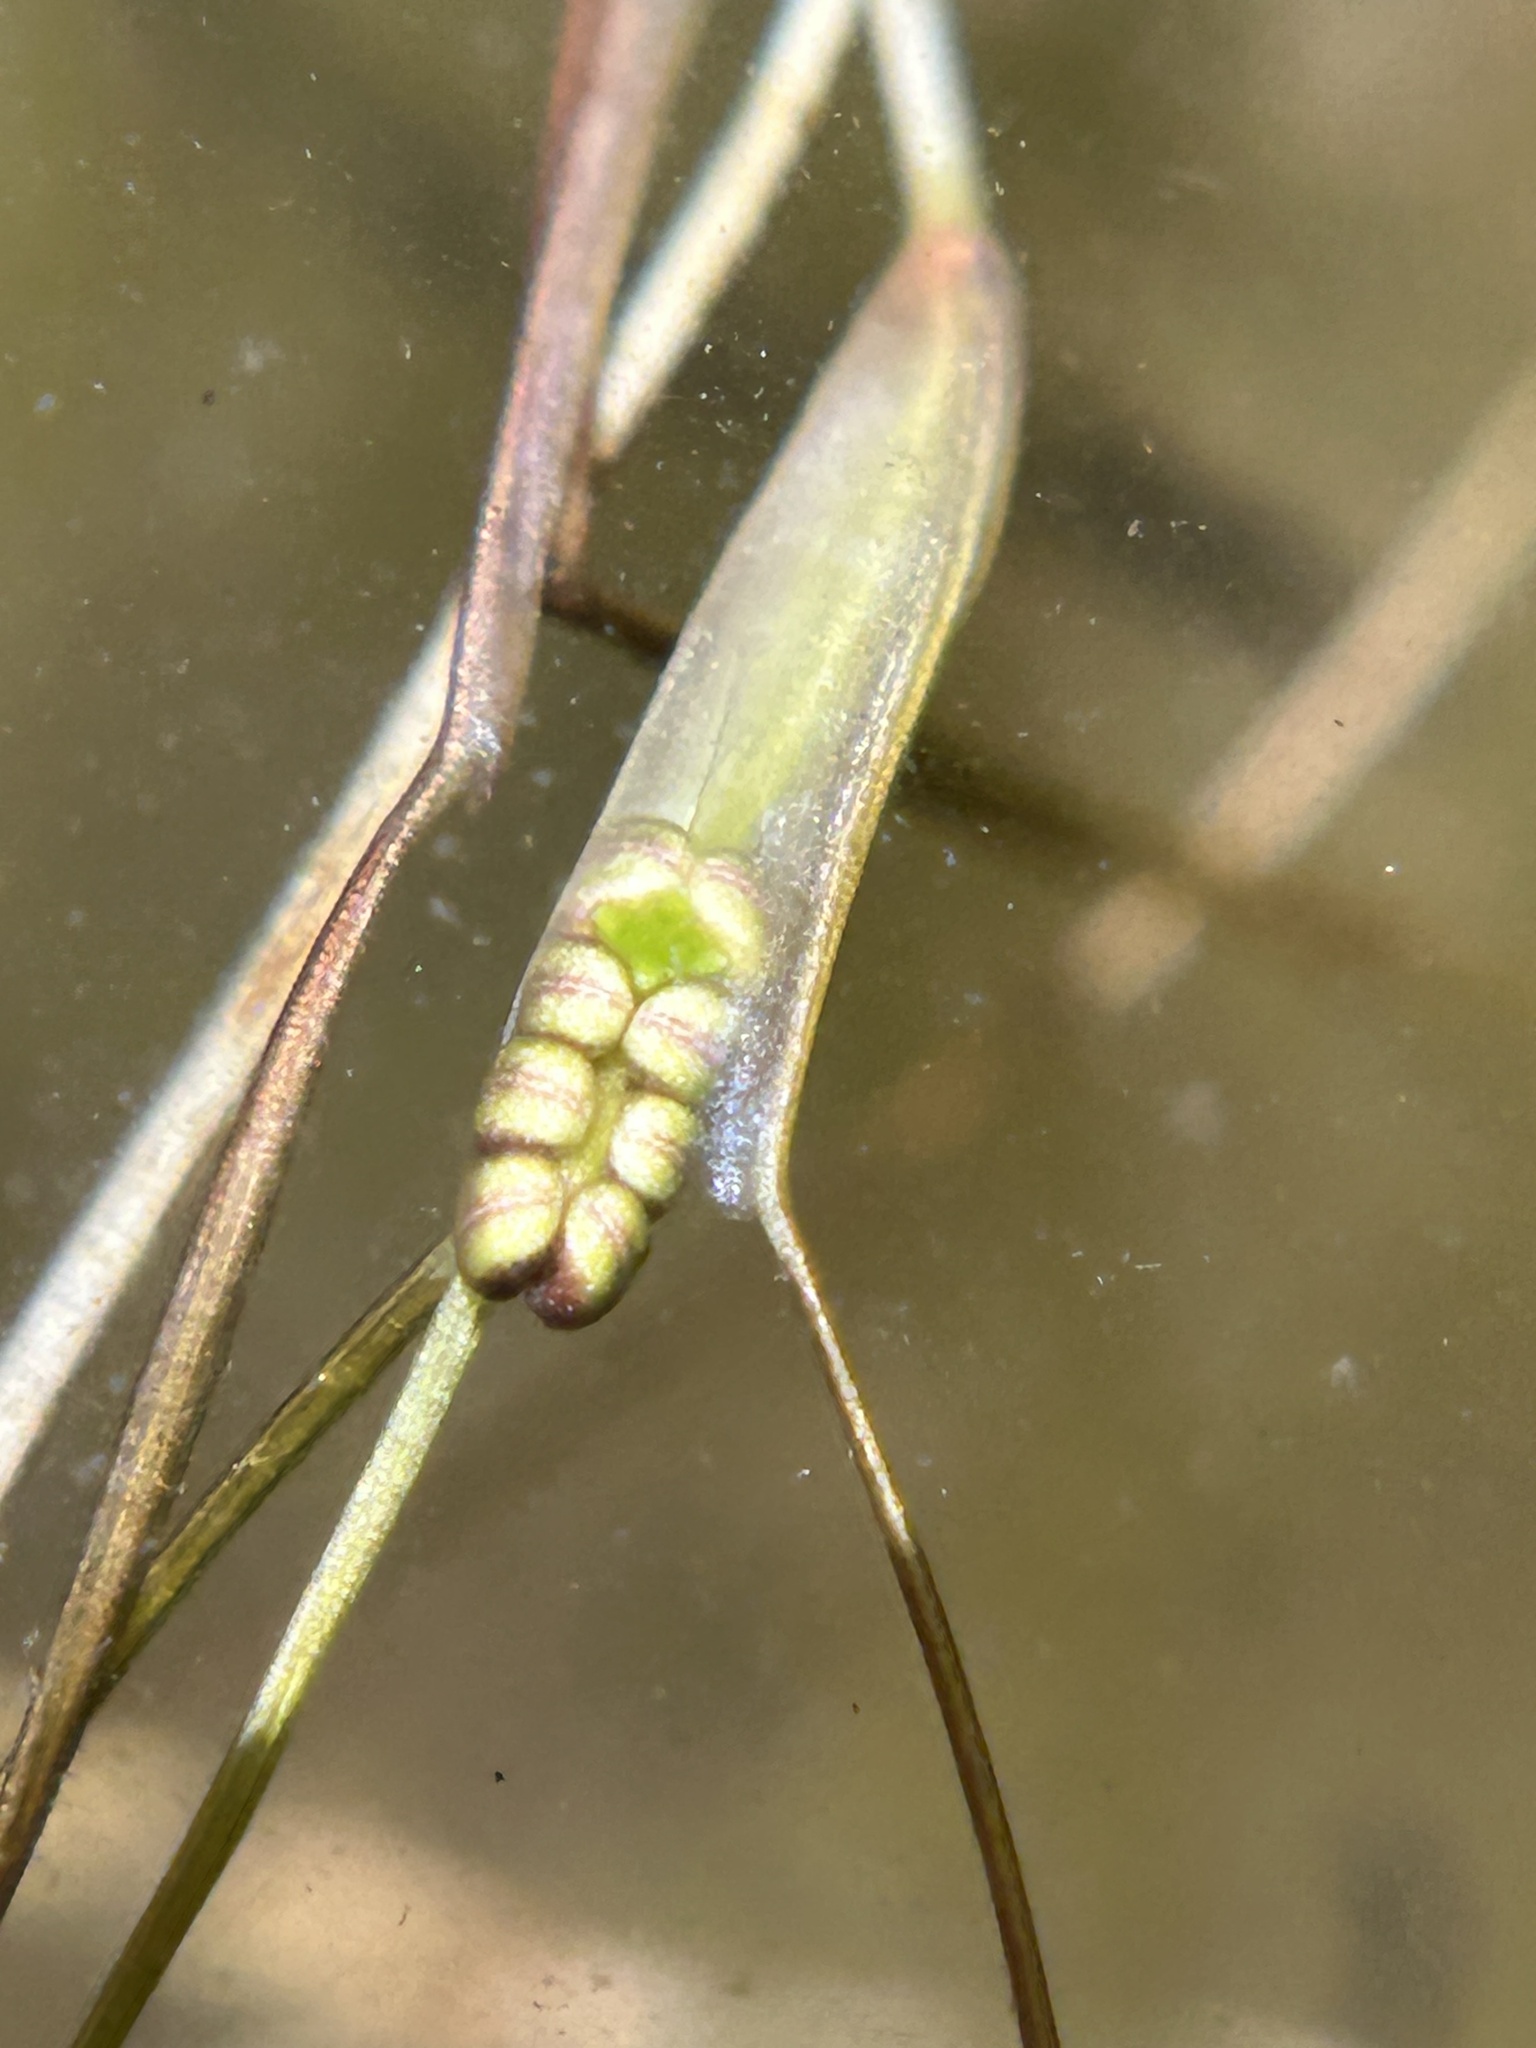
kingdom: Plantae
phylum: Tracheophyta
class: Liliopsida
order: Alismatales
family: Ruppiaceae
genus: Ruppia
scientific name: Ruppia maritima
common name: Beaked tasselweed
